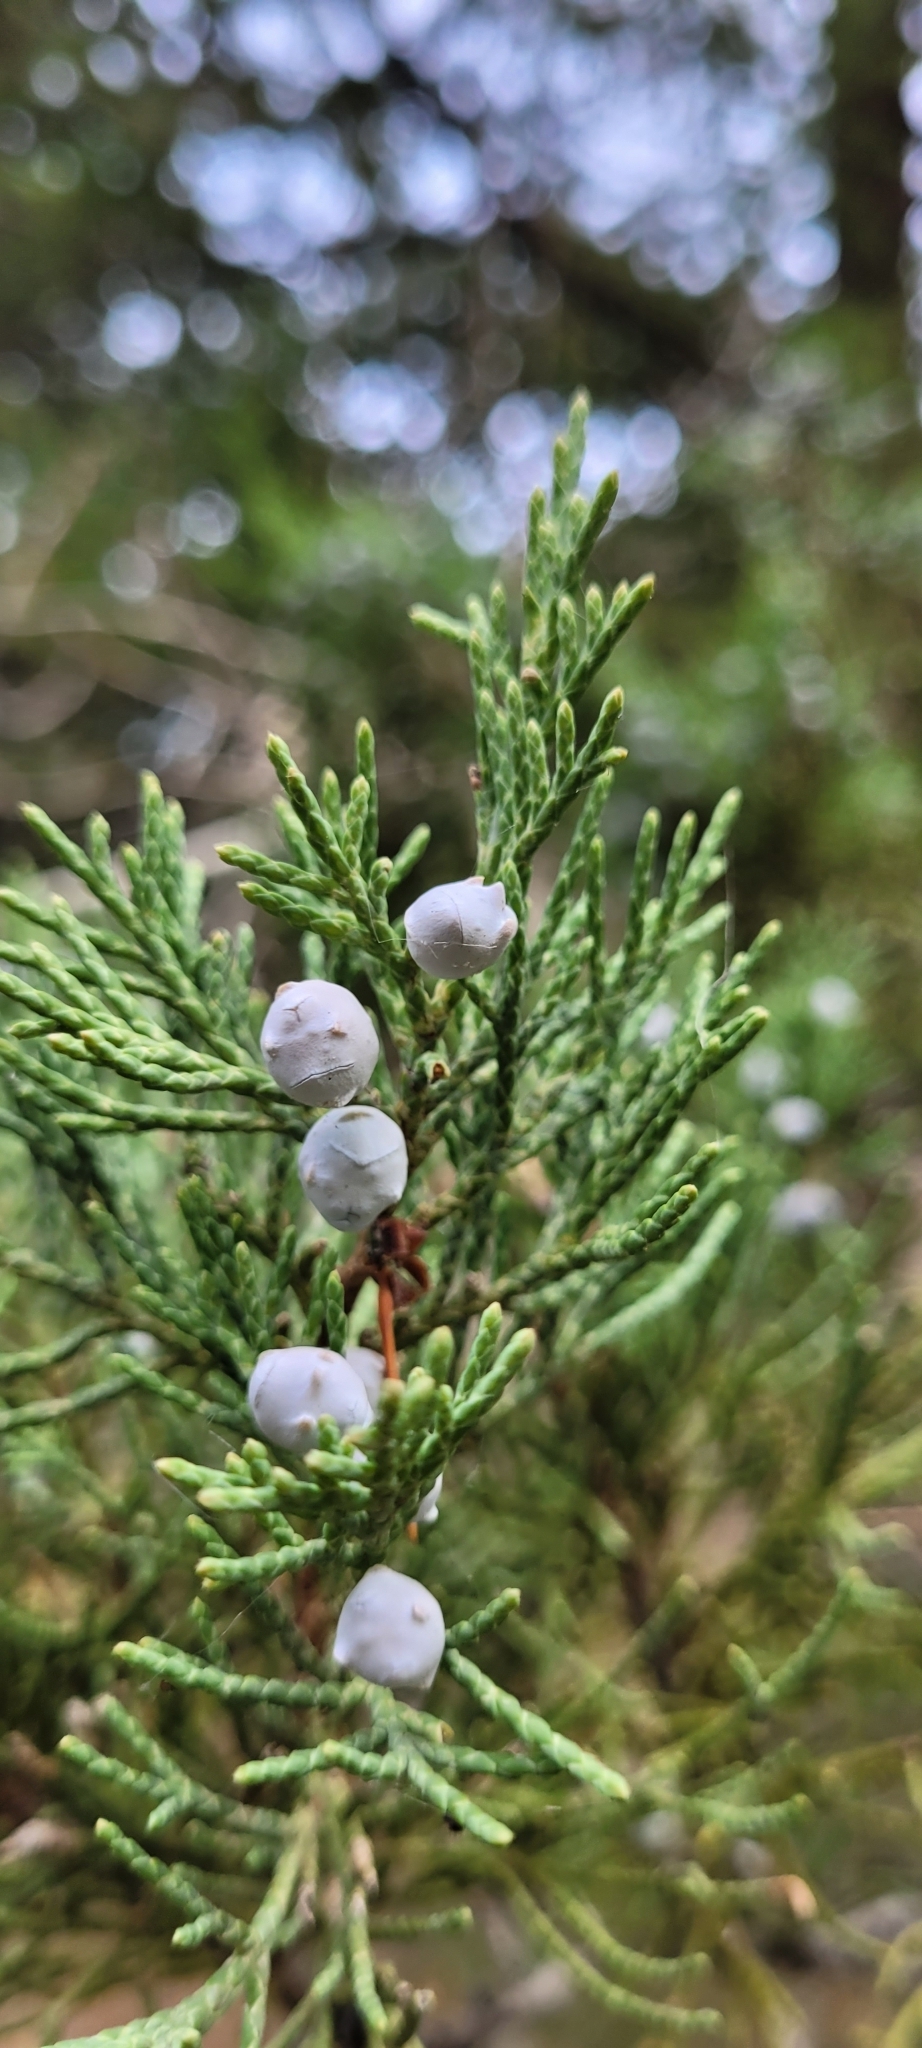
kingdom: Plantae
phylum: Tracheophyta
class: Pinopsida
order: Pinales
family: Cupressaceae
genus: Juniperus
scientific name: Juniperus scopulorum
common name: Rocky mountain juniper
